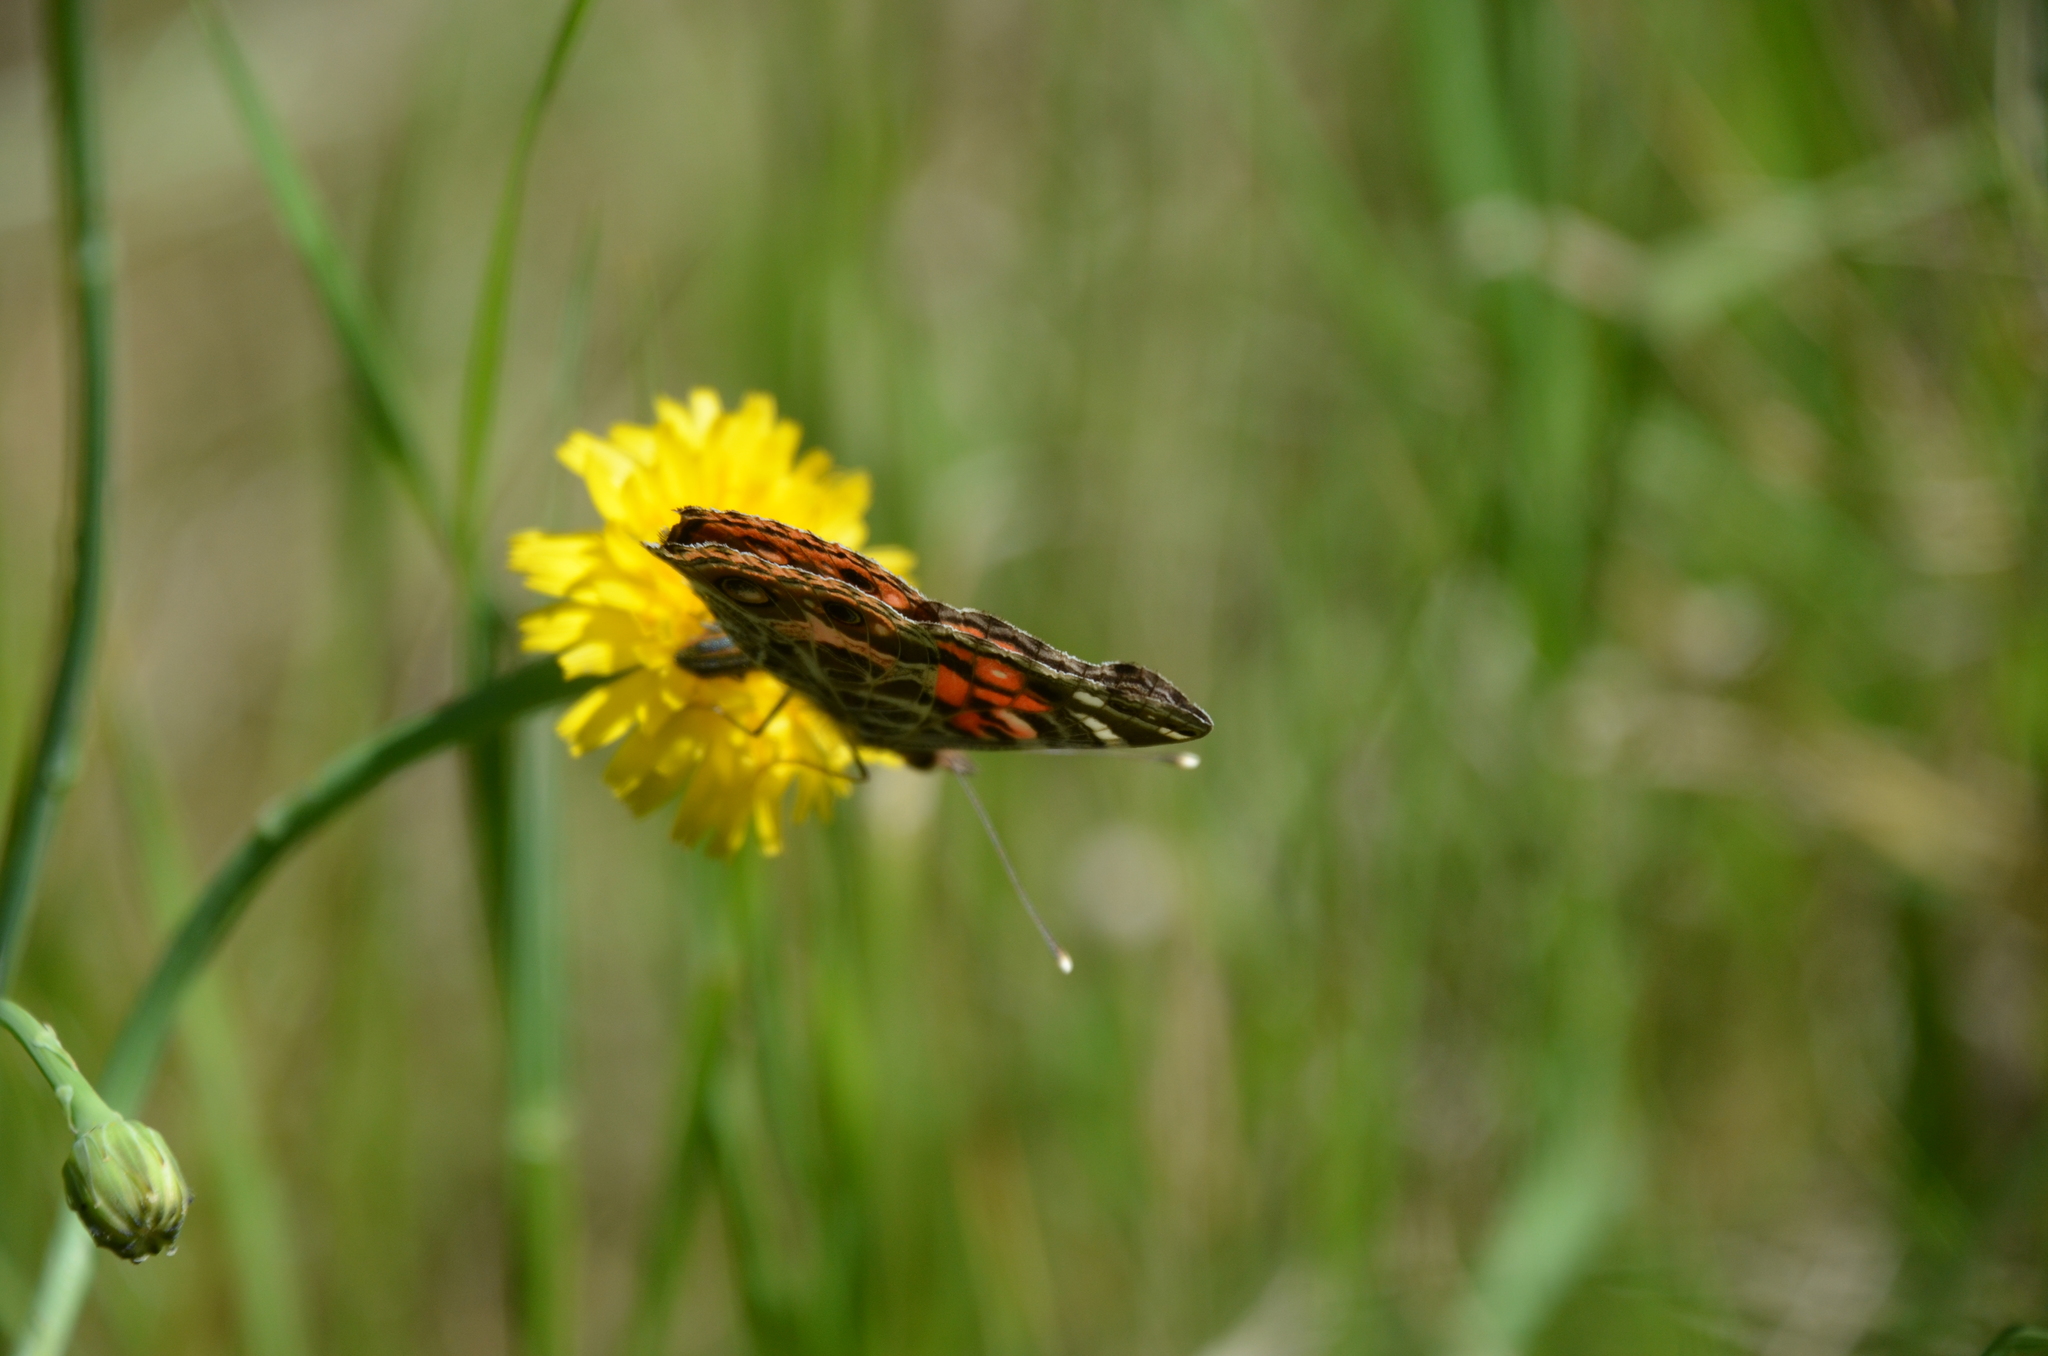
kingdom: Animalia
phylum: Arthropoda
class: Insecta
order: Lepidoptera
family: Nymphalidae
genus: Vanessa
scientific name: Vanessa braziliensis
